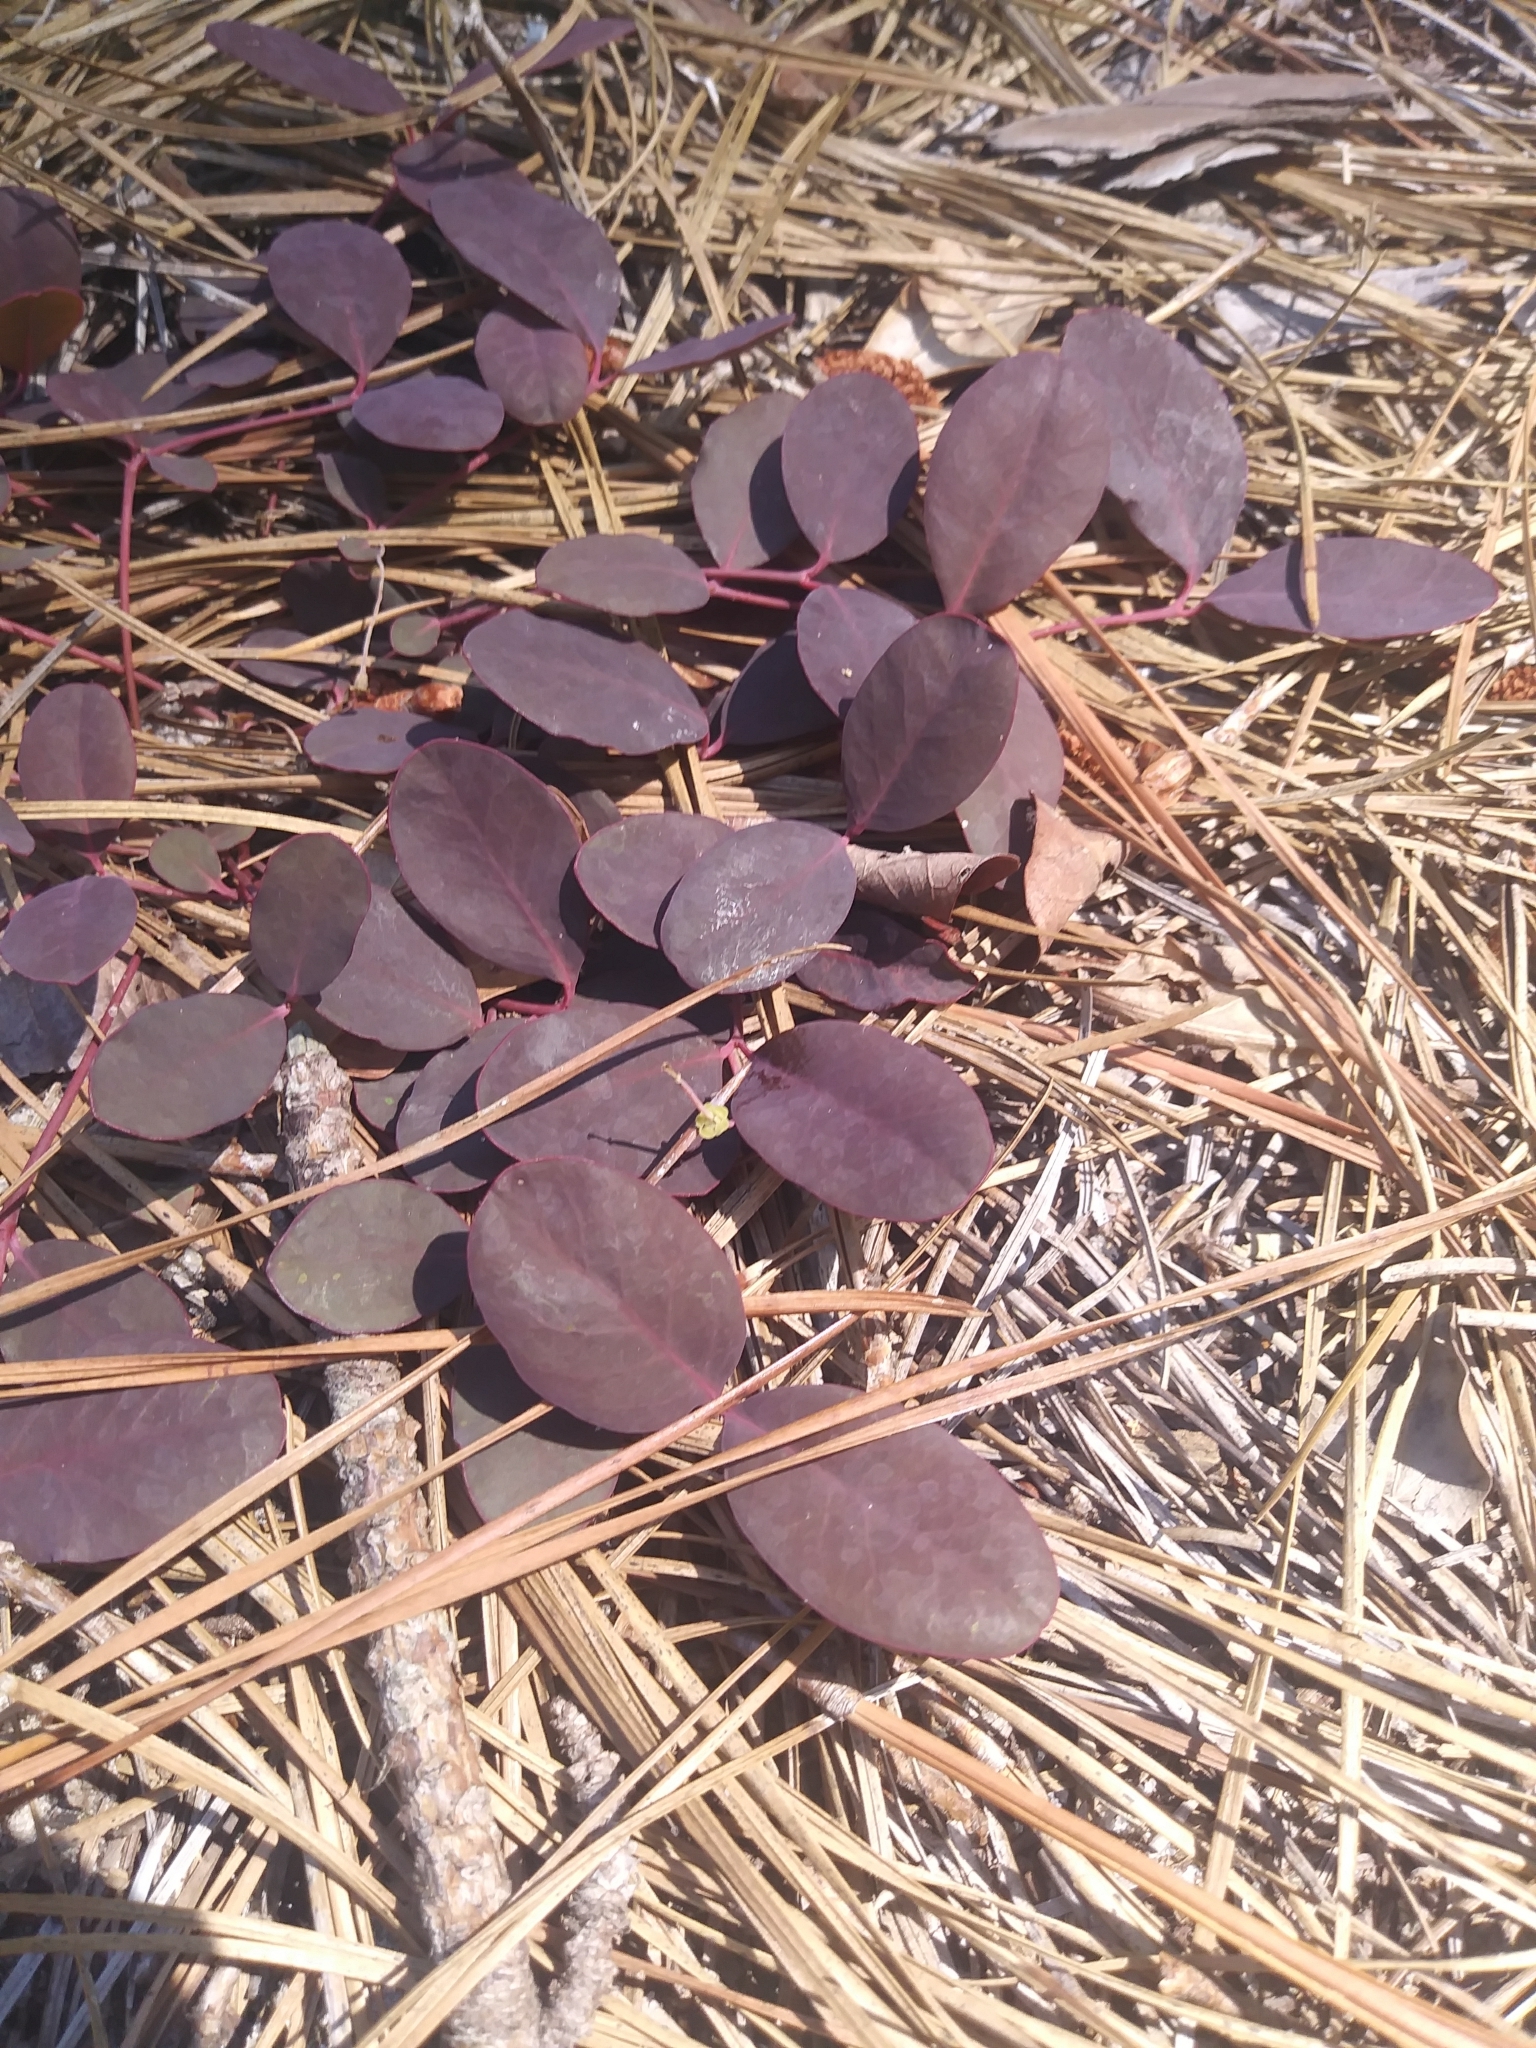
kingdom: Plantae
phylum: Tracheophyta
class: Magnoliopsida
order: Malpighiales
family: Euphorbiaceae
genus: Euphorbia
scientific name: Euphorbia ipecacuanhae
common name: Carolina ipecac
